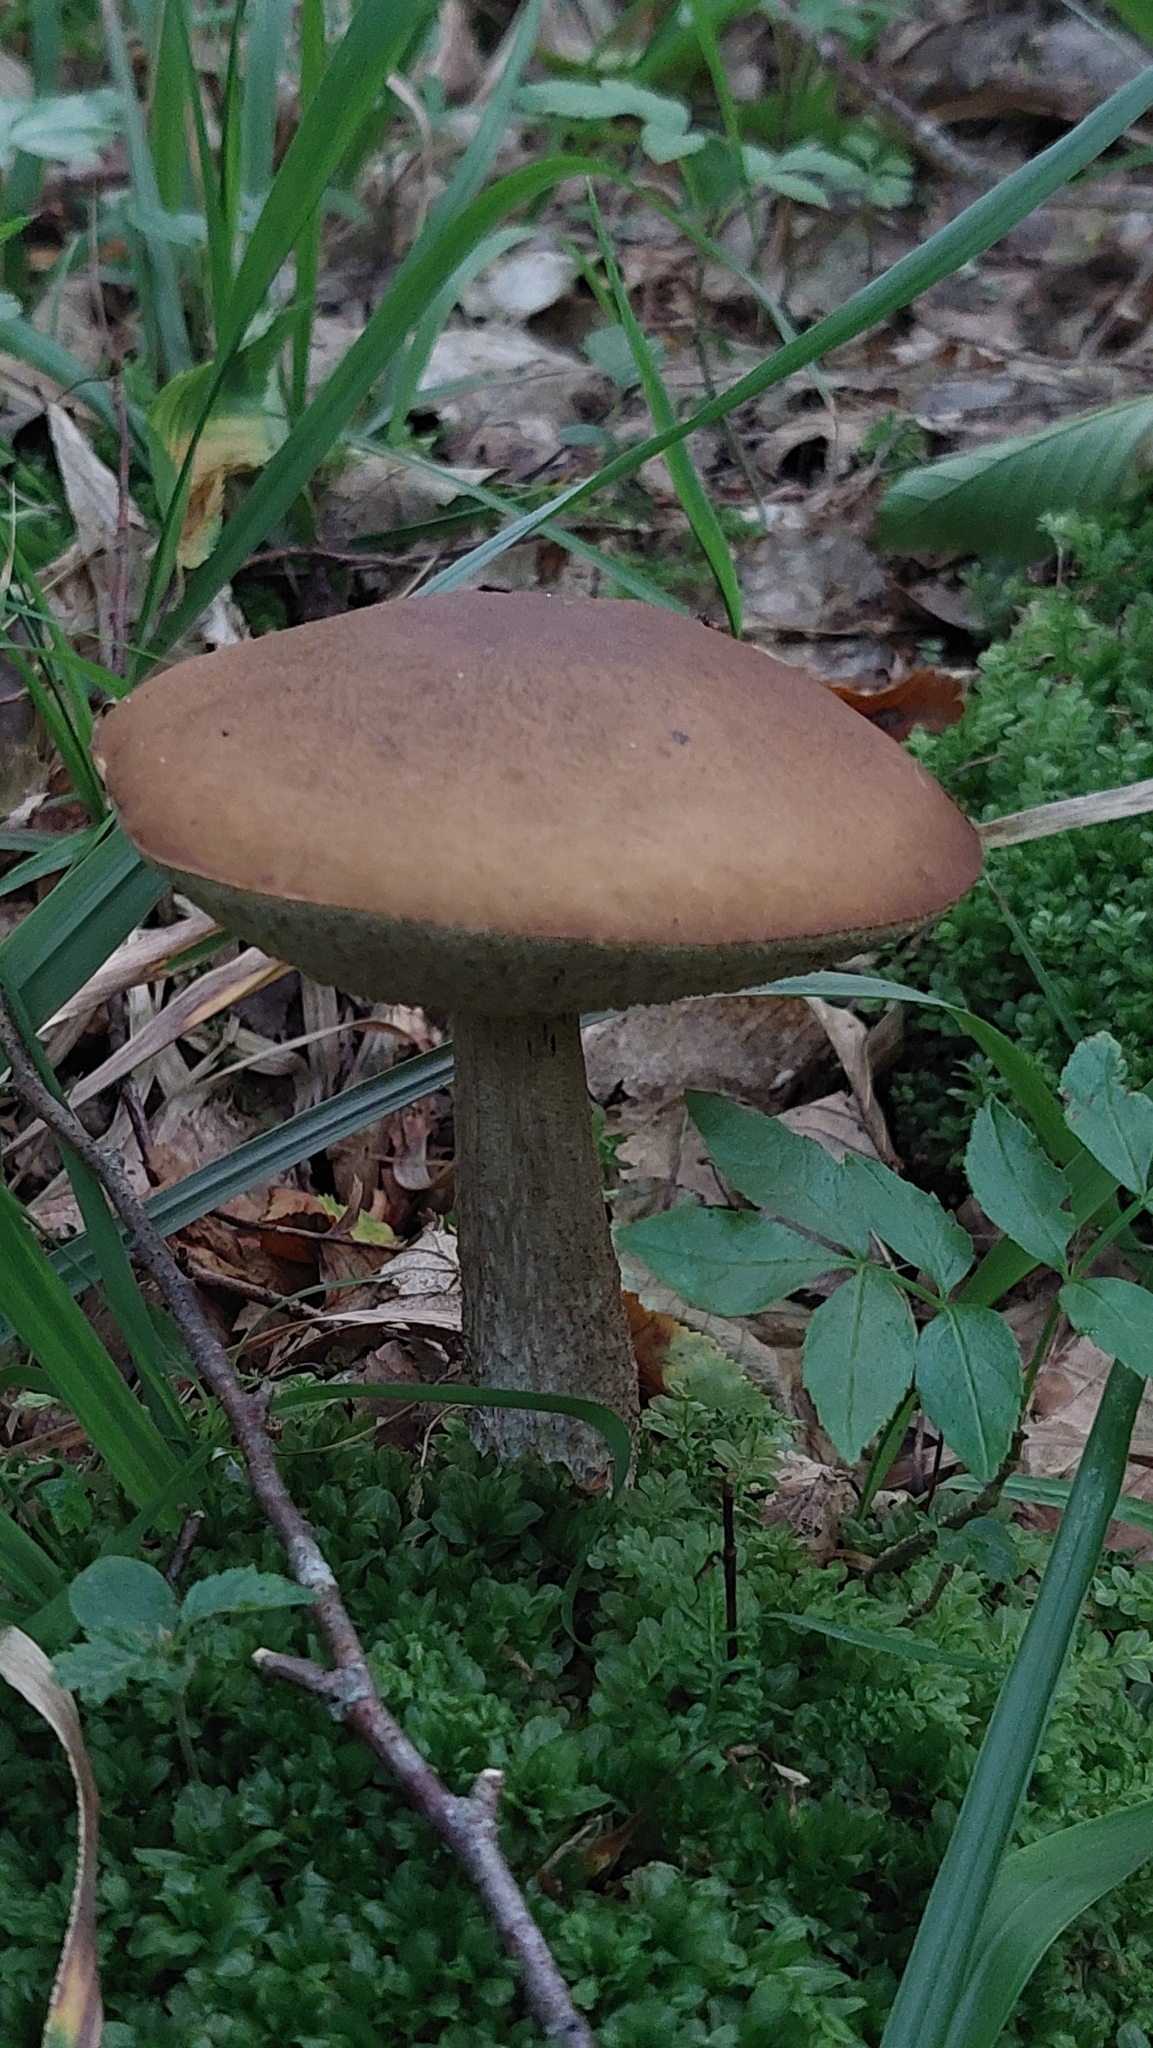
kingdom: Fungi
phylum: Basidiomycota
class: Agaricomycetes
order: Boletales
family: Boletaceae
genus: Leccinum
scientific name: Leccinum scabrum
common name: Blushing bolete
